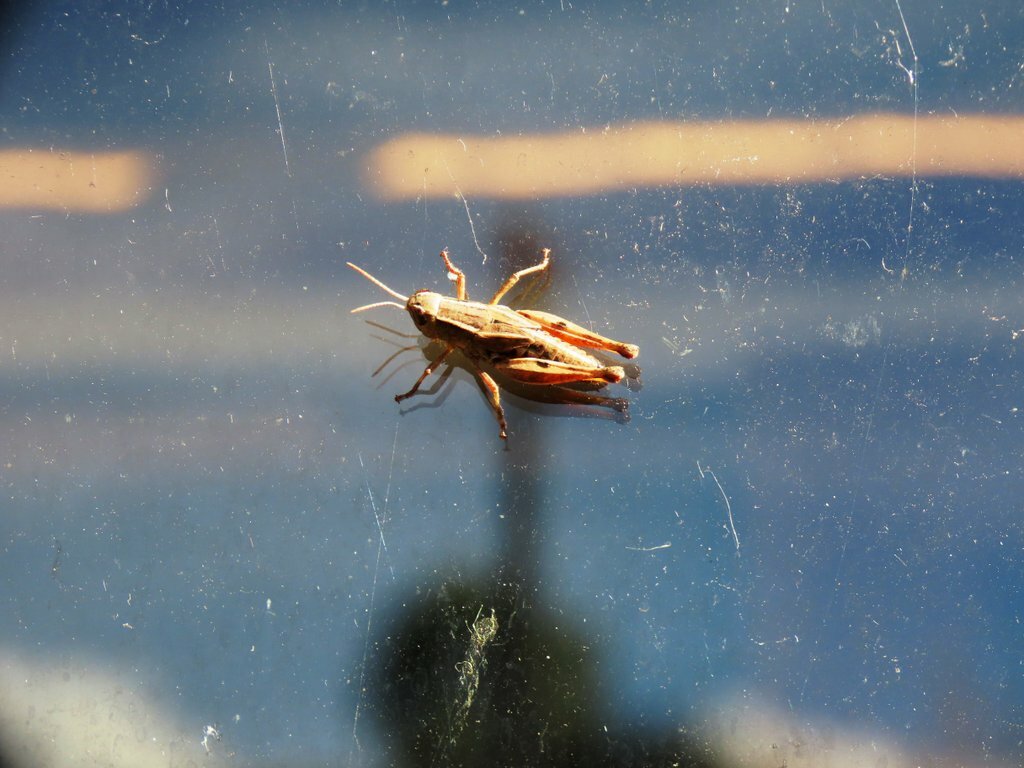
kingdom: Animalia
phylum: Arthropoda
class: Insecta
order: Orthoptera
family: Acrididae
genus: Phaulacridium
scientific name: Phaulacridium vittatum
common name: Wingless grasshopper
